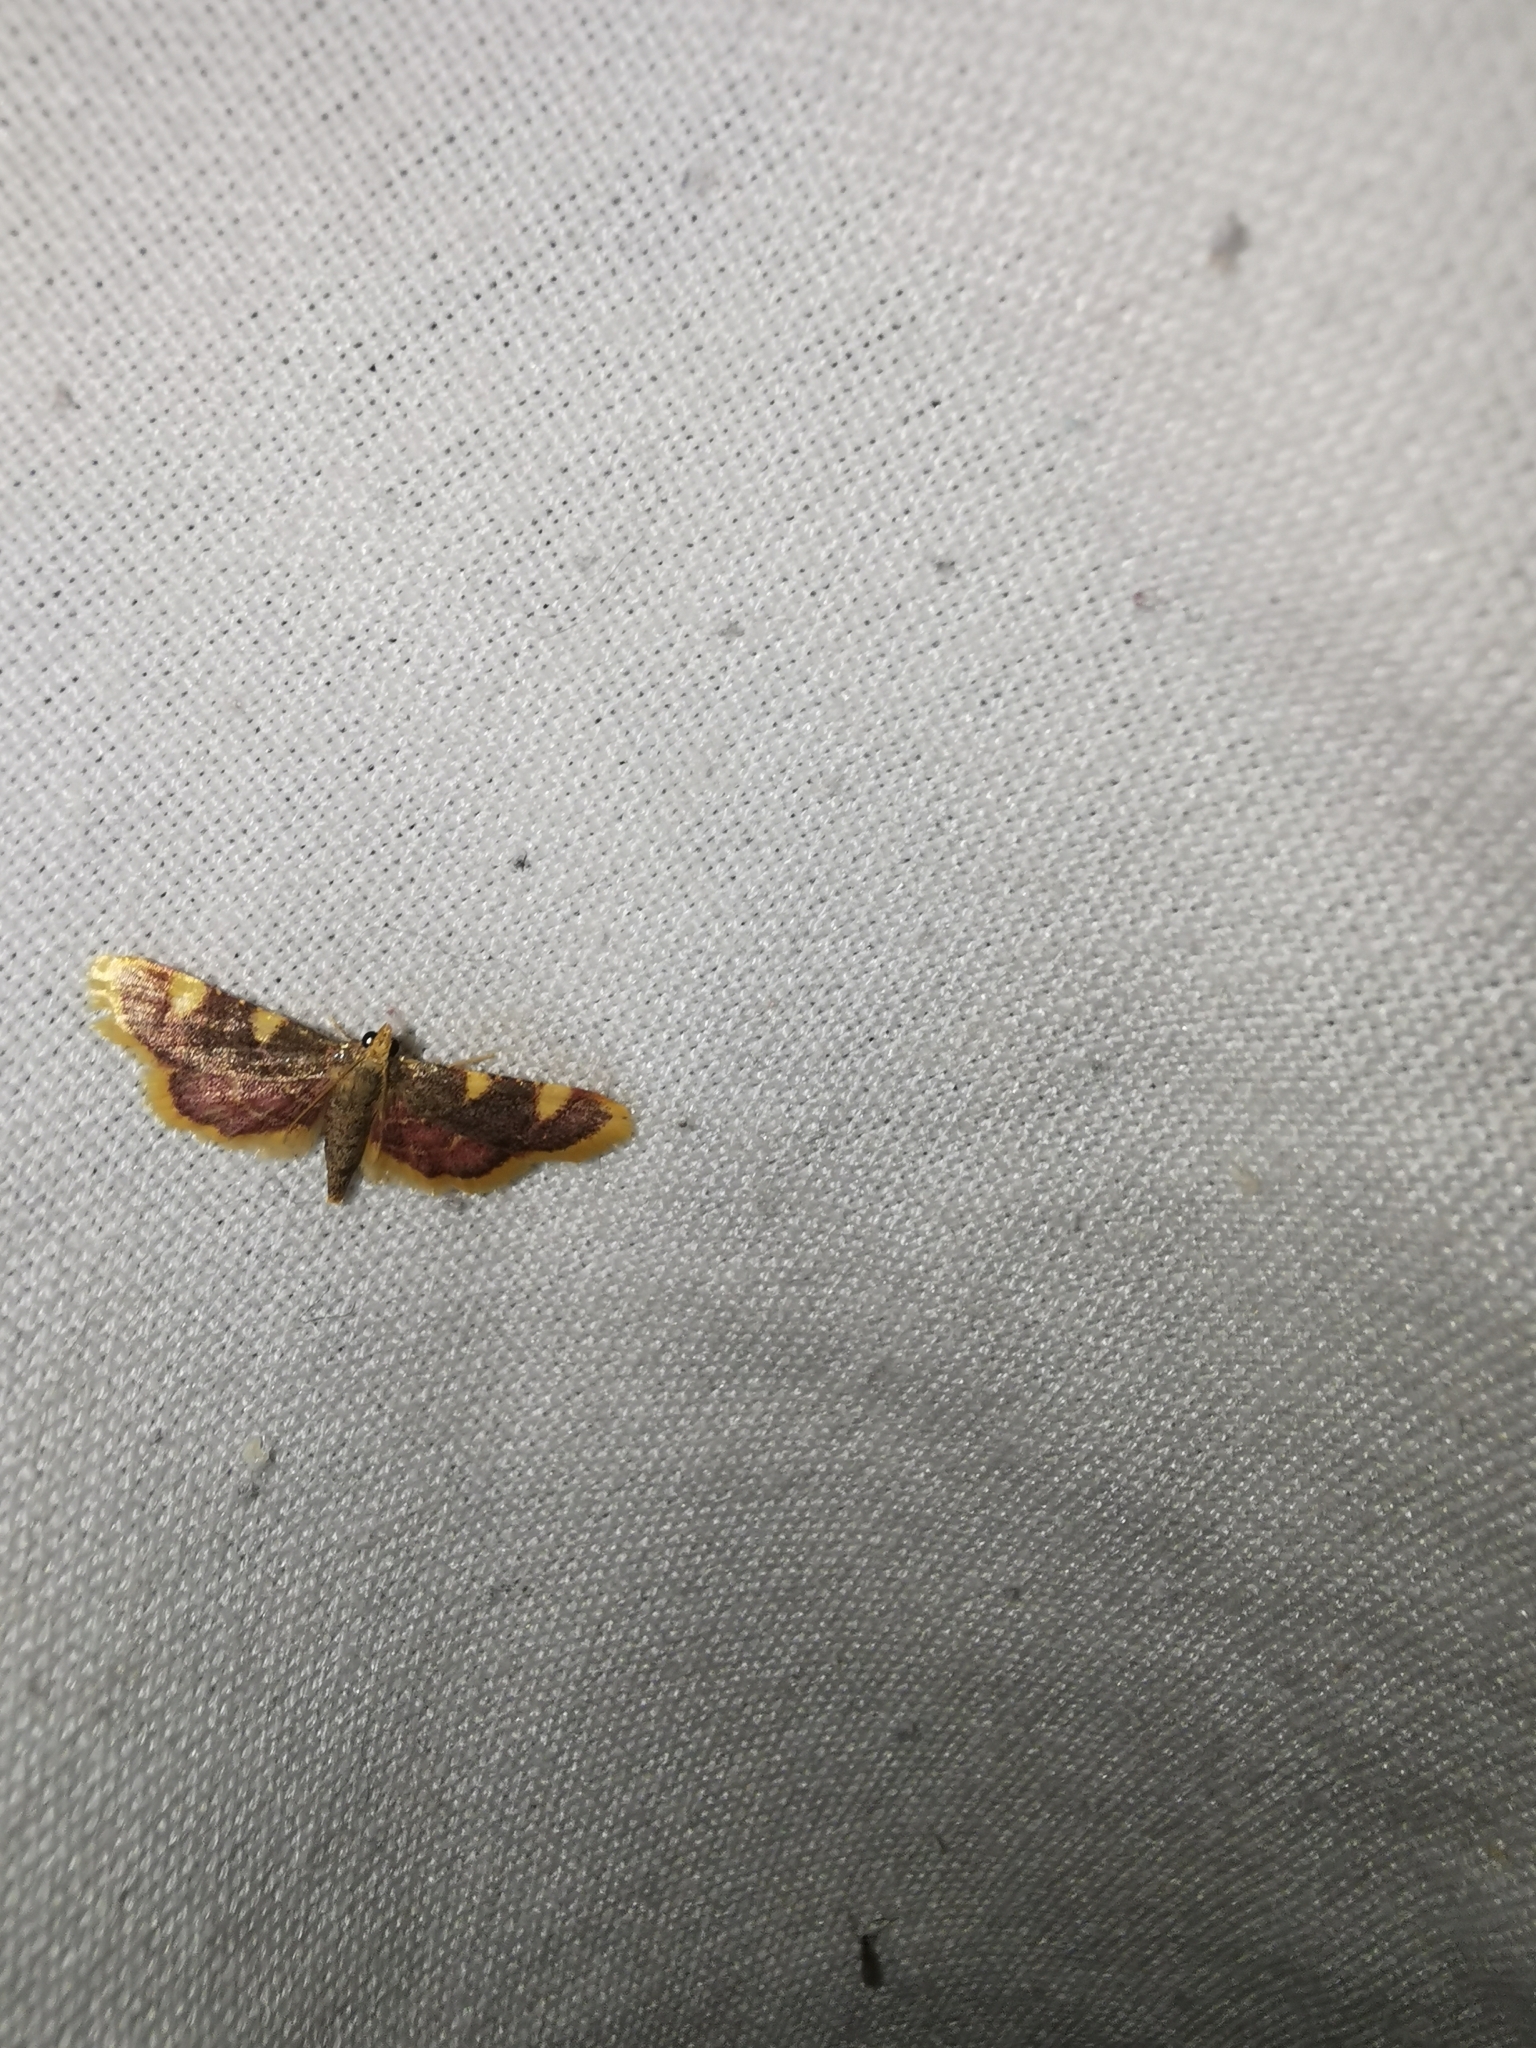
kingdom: Animalia
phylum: Arthropoda
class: Insecta
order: Lepidoptera
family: Pyralidae
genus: Hypsopygia
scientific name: Hypsopygia costalis
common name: Gold triangle
